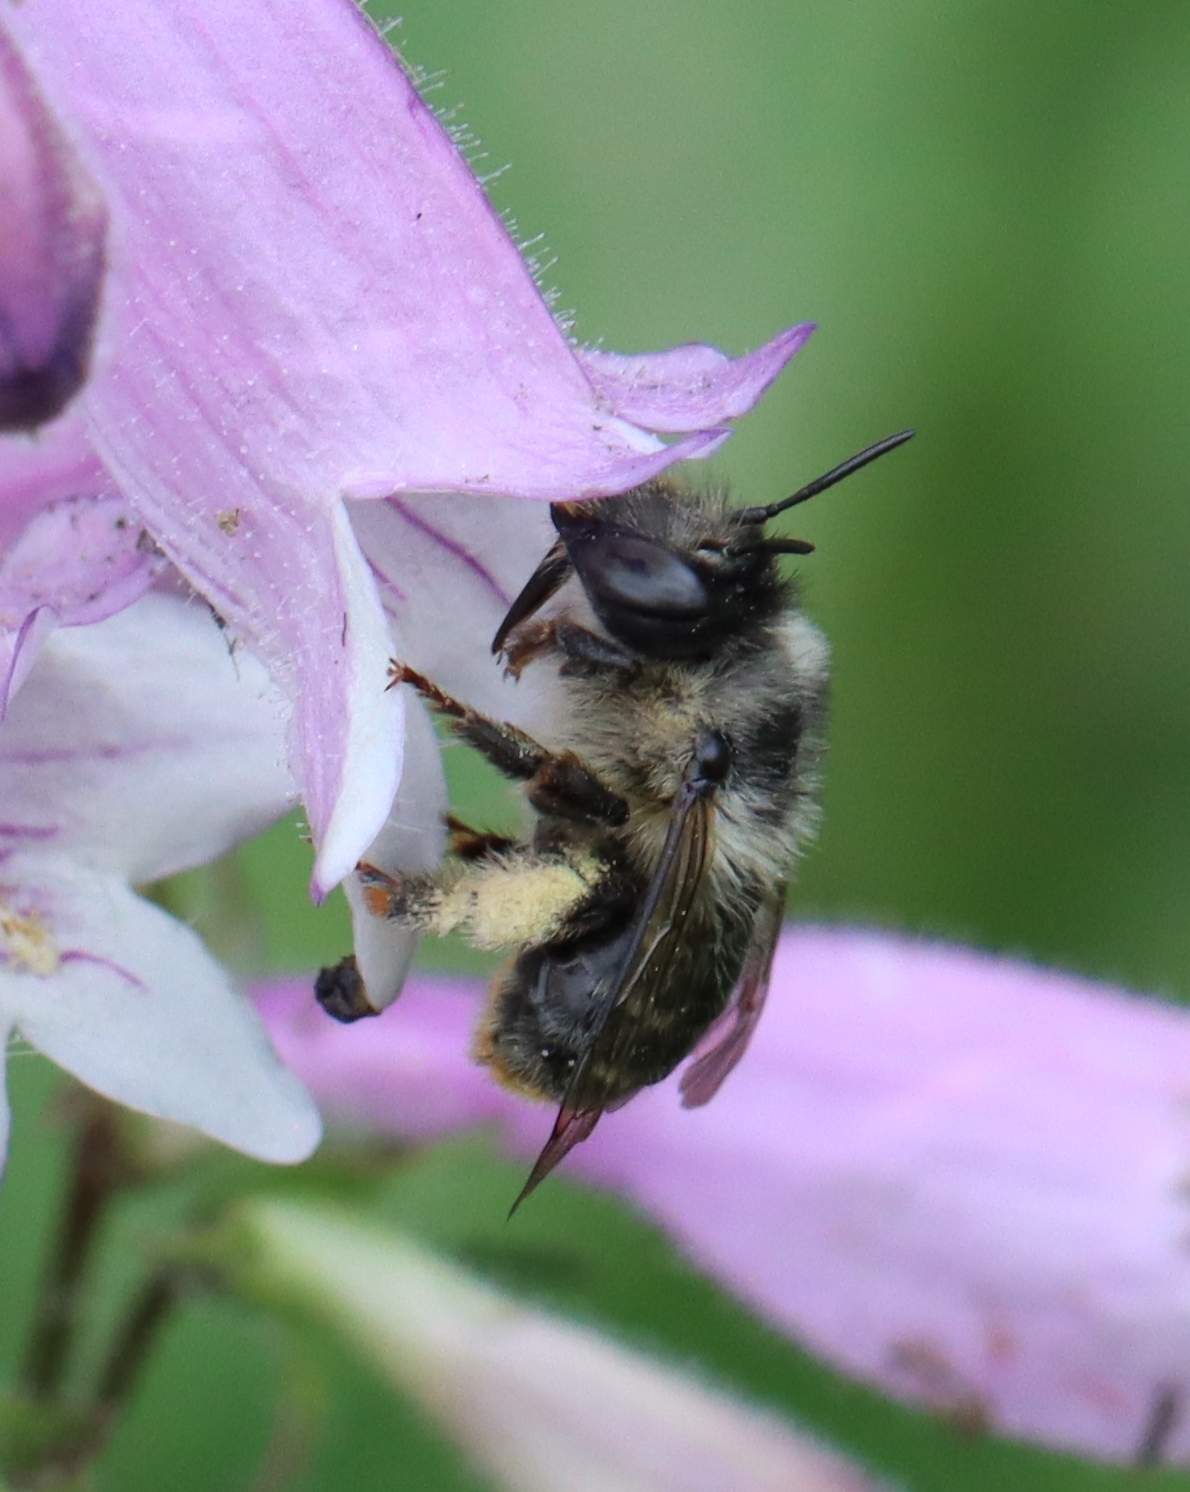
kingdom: Animalia
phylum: Arthropoda
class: Insecta
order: Hymenoptera
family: Apidae
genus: Anthophora
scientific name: Anthophora terminalis
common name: Orange-tipped wood-digger bee
